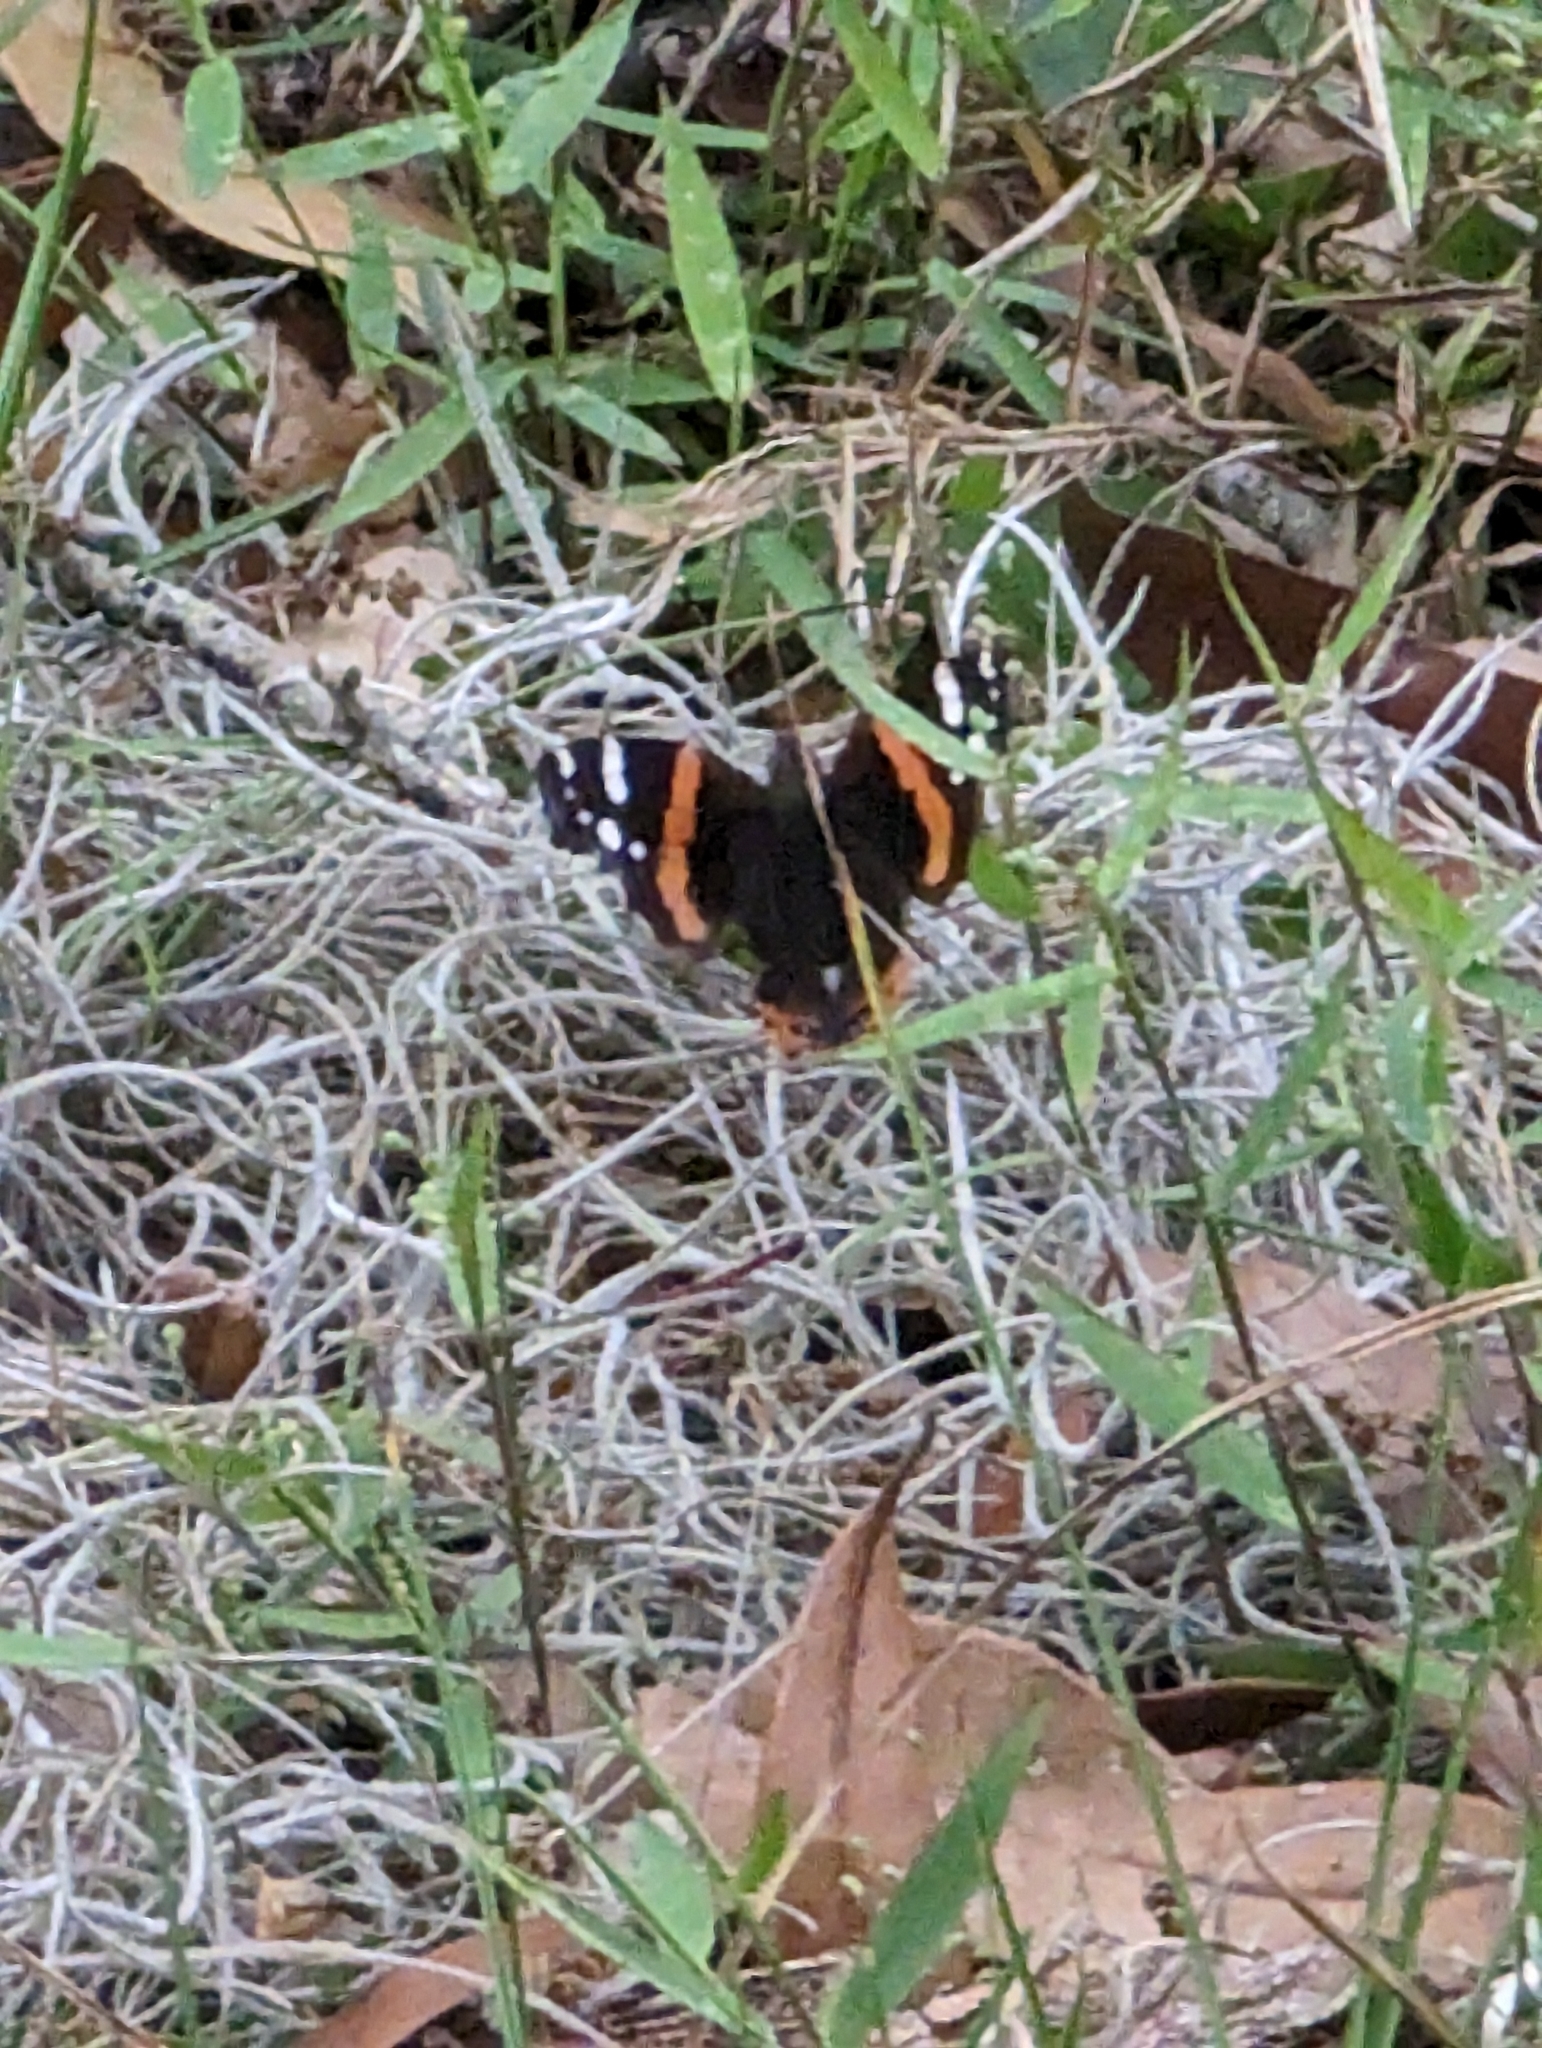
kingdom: Animalia
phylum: Arthropoda
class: Insecta
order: Lepidoptera
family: Nymphalidae
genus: Vanessa
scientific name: Vanessa atalanta
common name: Red admiral
